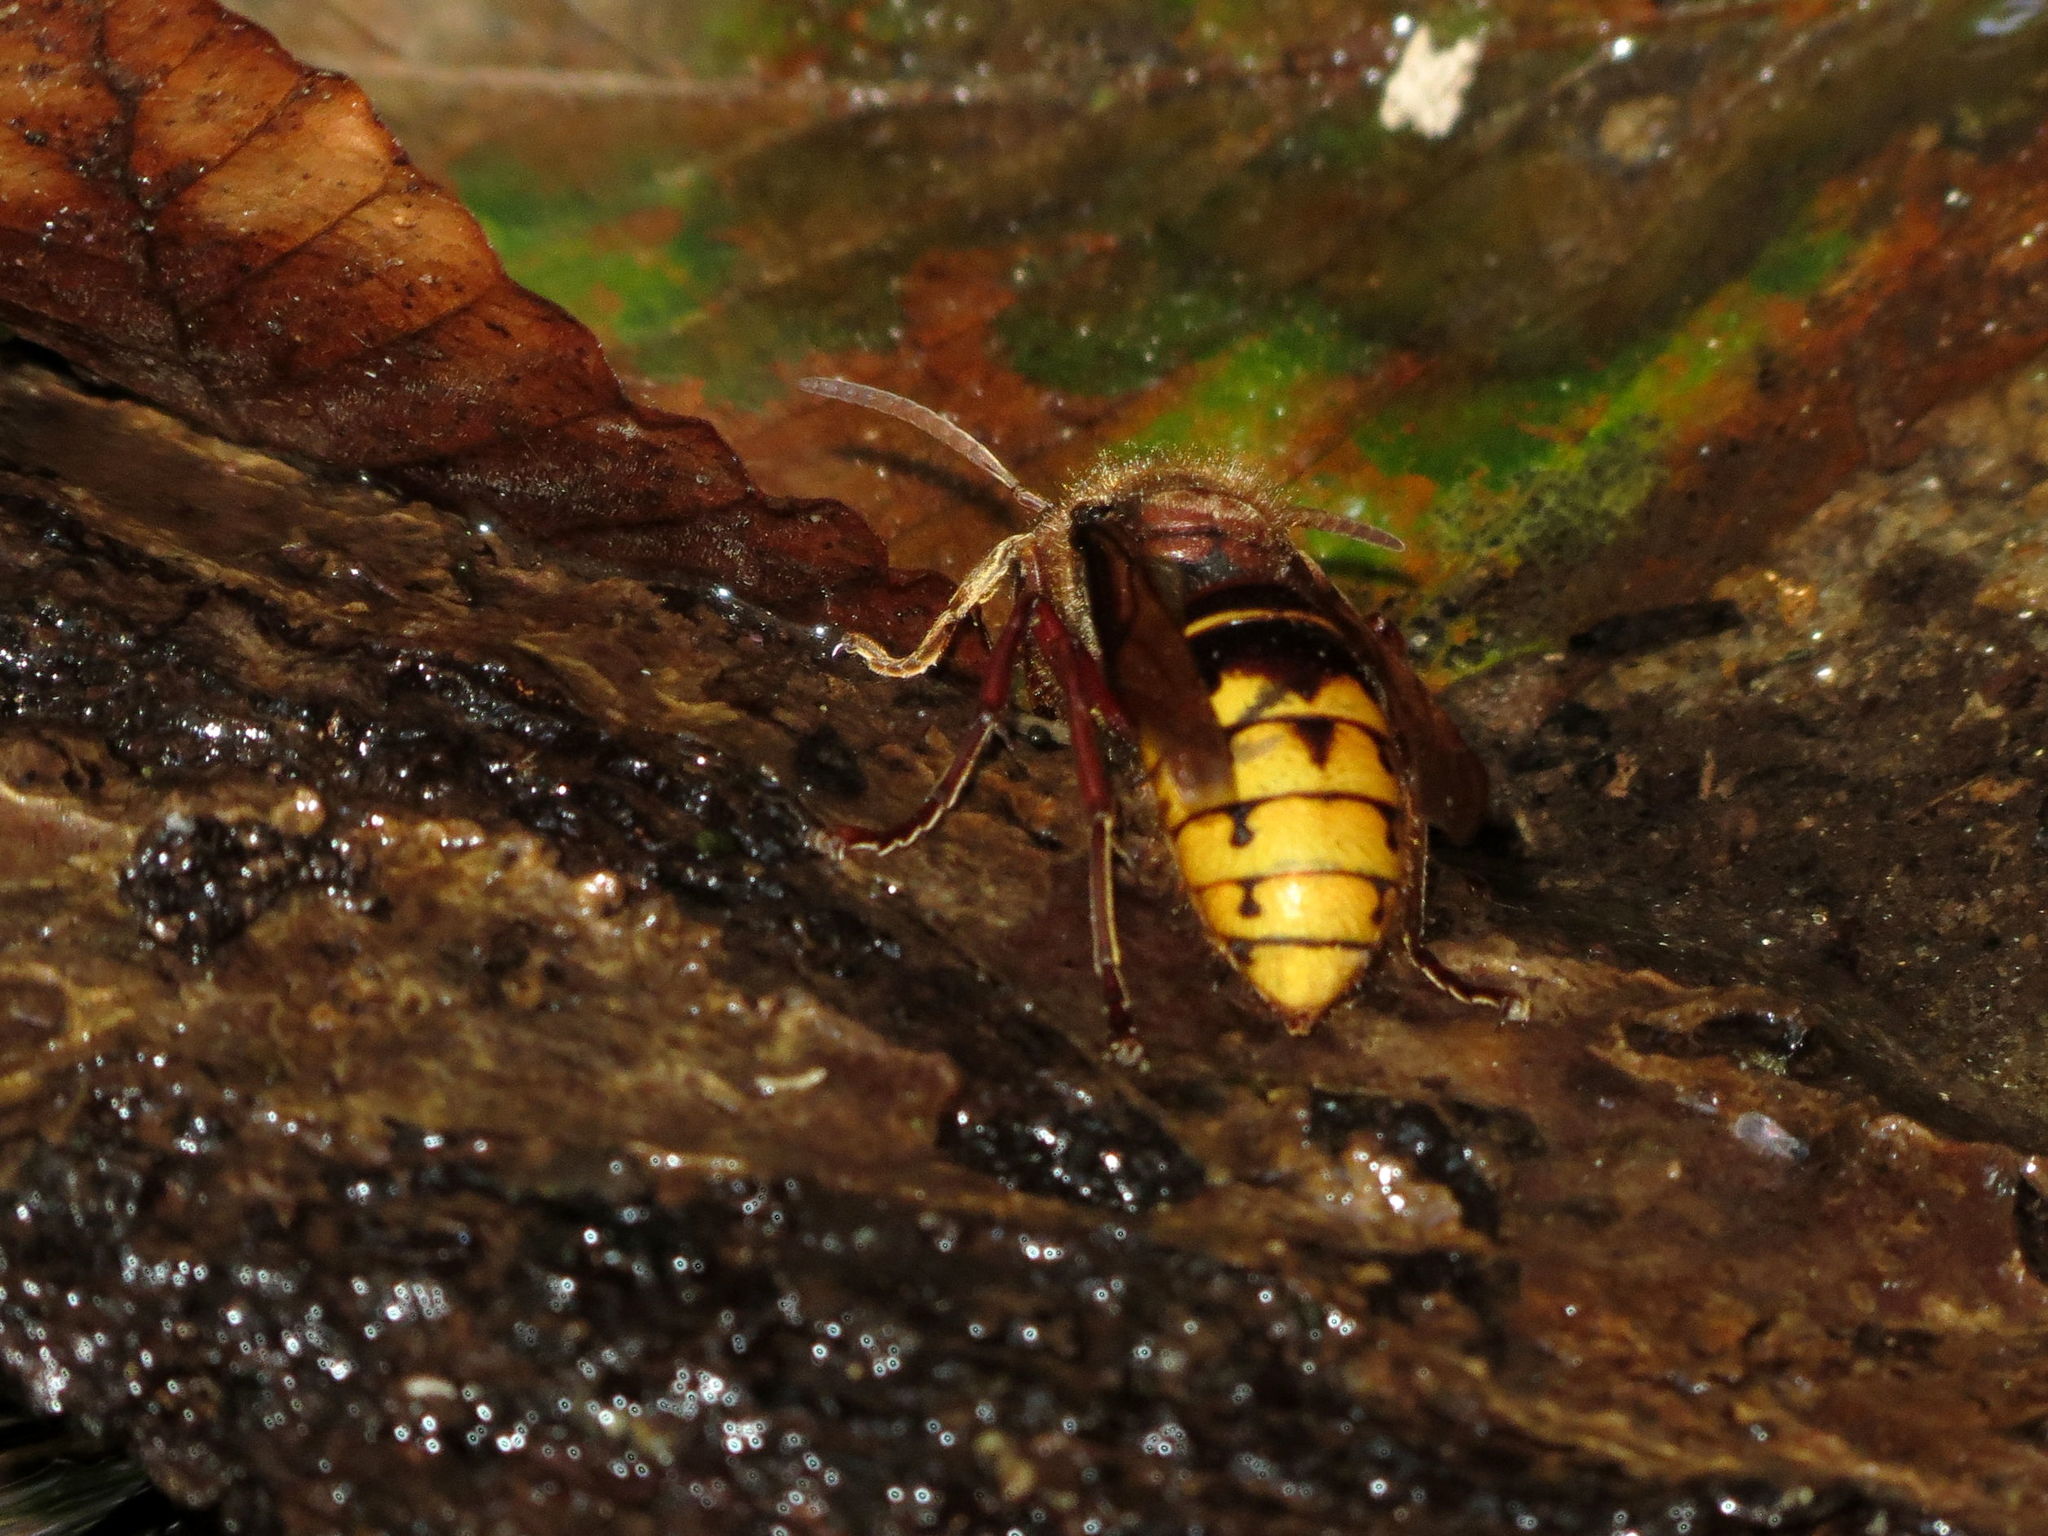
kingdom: Animalia
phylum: Arthropoda
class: Insecta
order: Hymenoptera
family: Vespidae
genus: Vespa
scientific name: Vespa crabro
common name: Hornet
